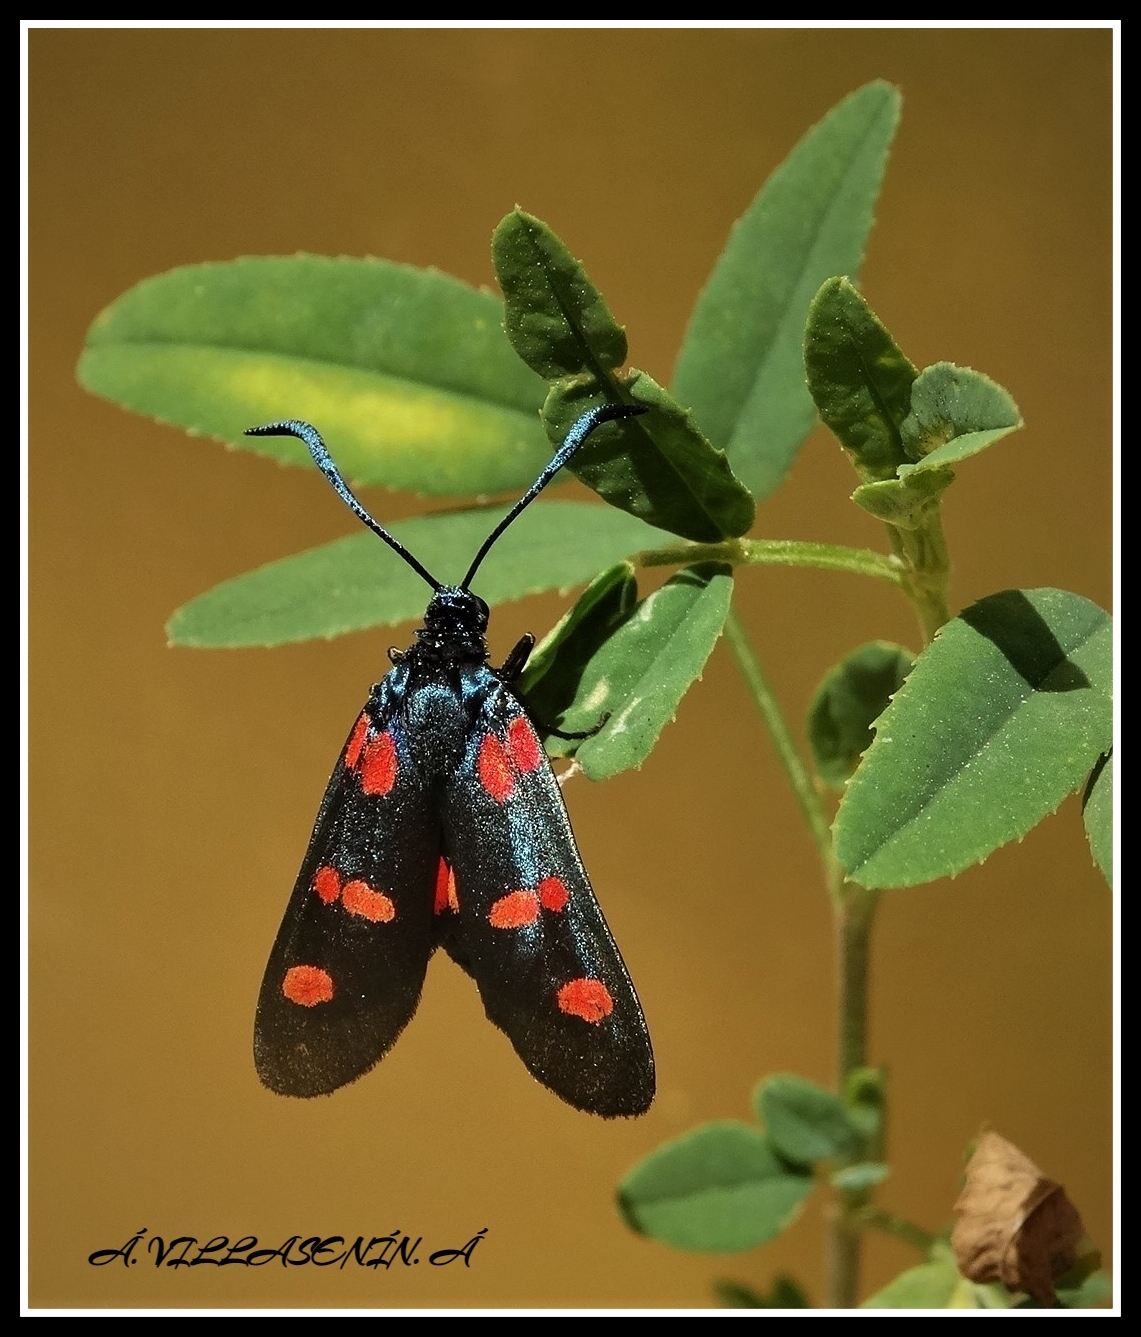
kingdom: Animalia
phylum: Arthropoda
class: Insecta
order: Lepidoptera
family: Zygaenidae
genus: Zygaena
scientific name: Zygaena trifolii
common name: Five-spot burnet
